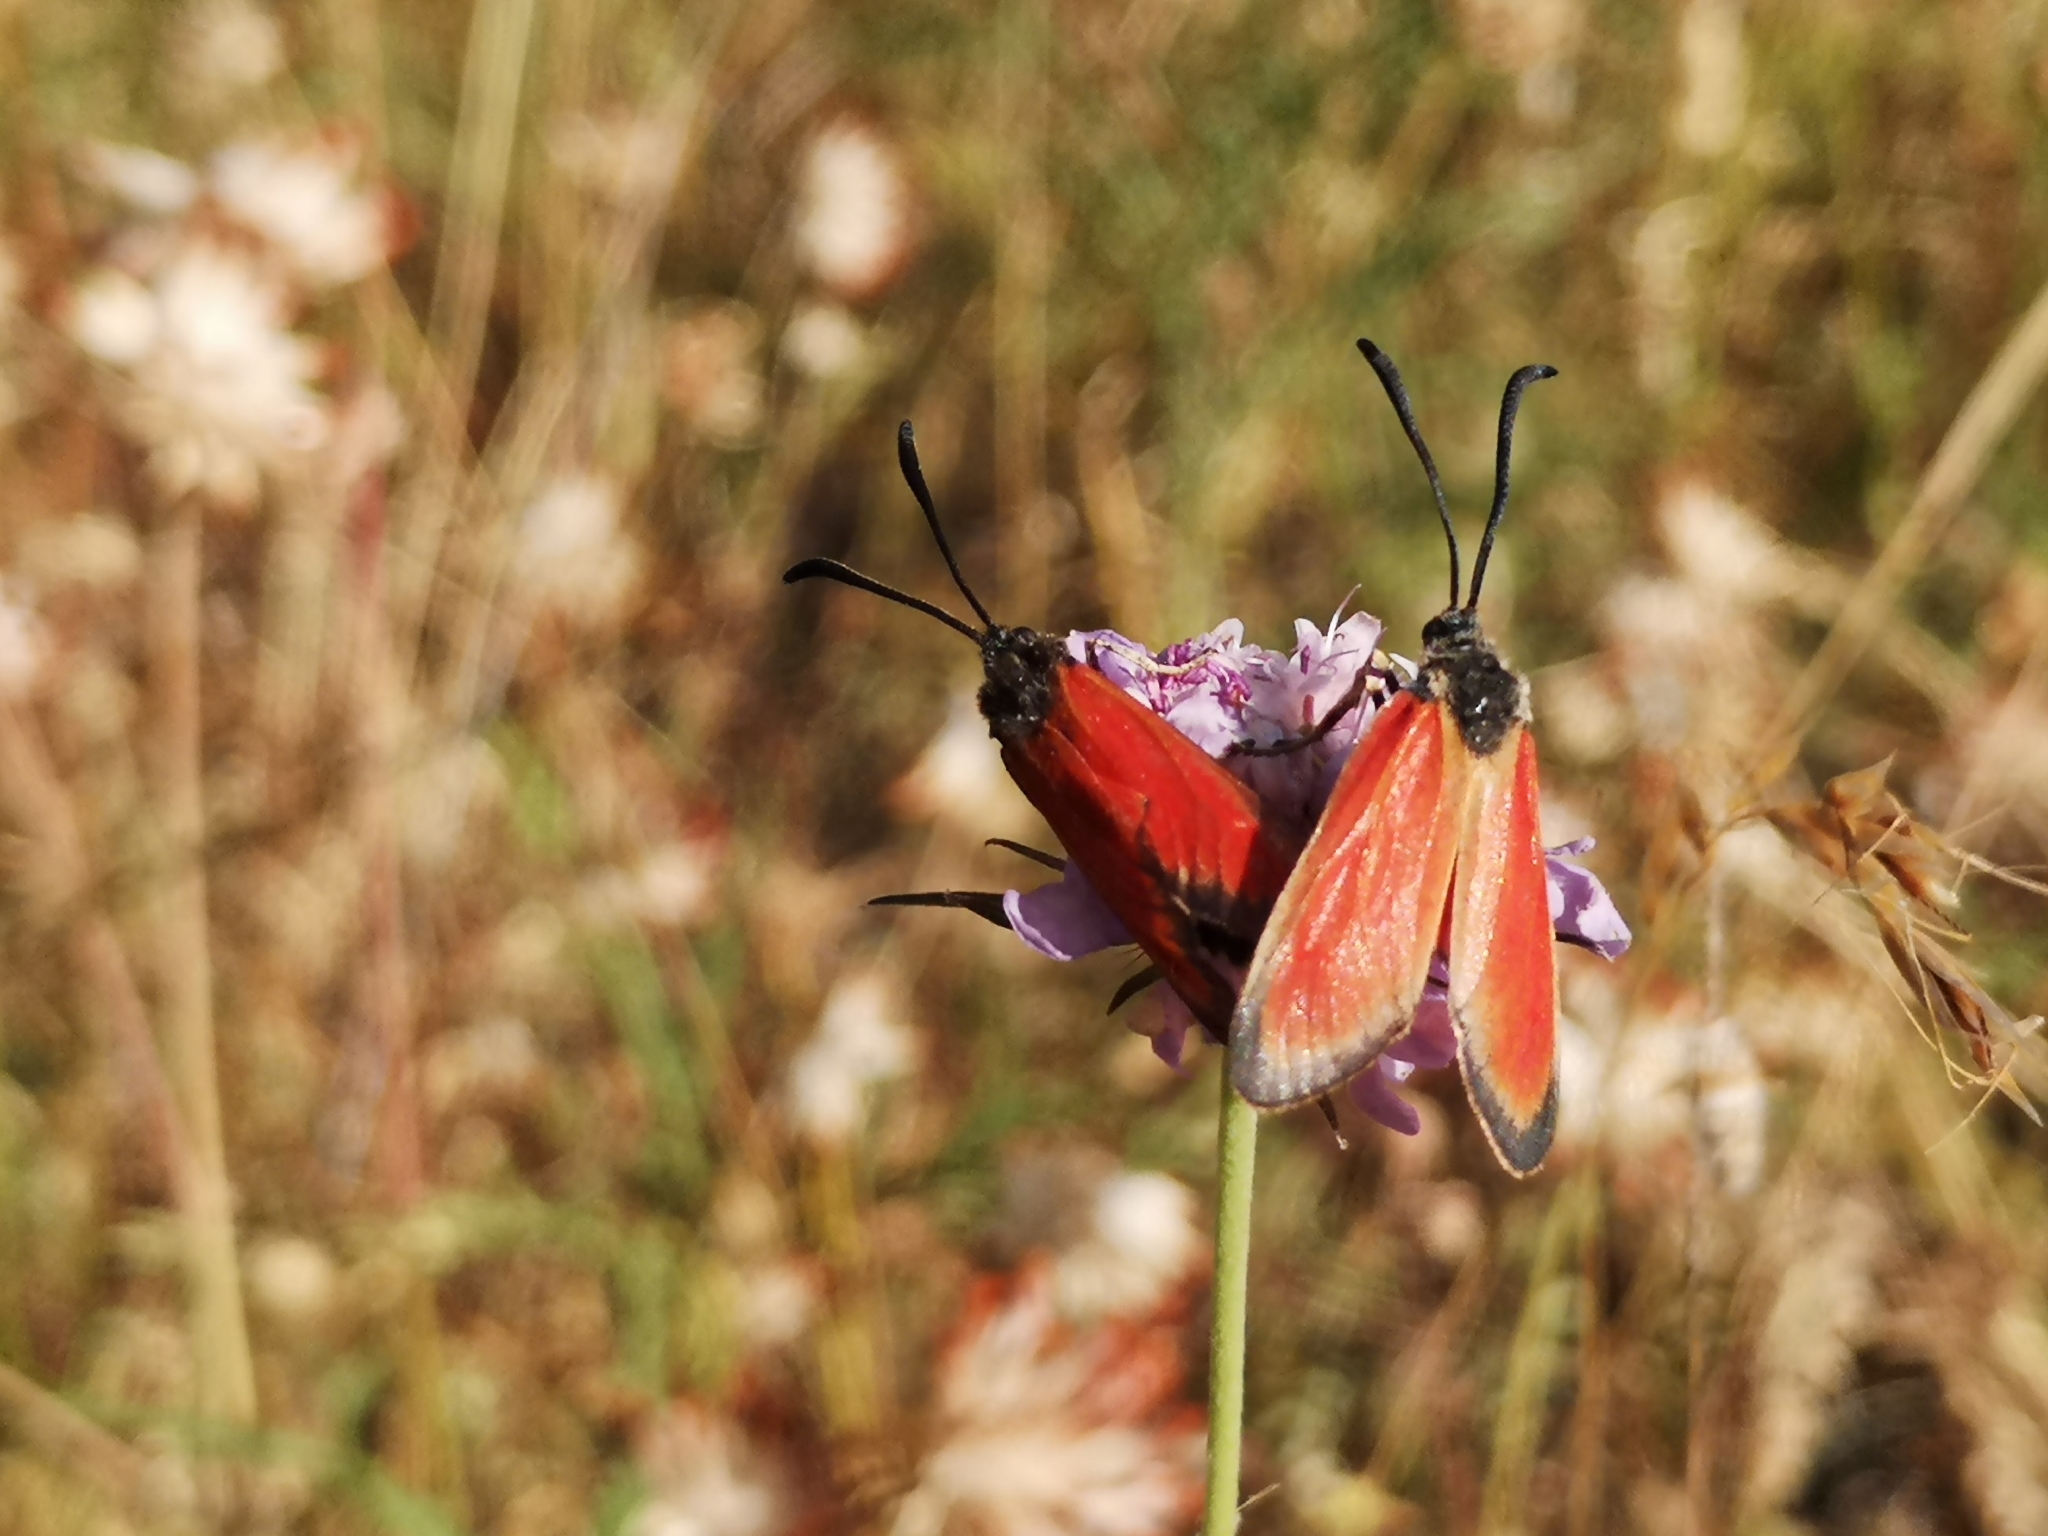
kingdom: Animalia
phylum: Arthropoda
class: Insecta
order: Lepidoptera
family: Zygaenidae
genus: Zygaena
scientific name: Zygaena rubicundus
